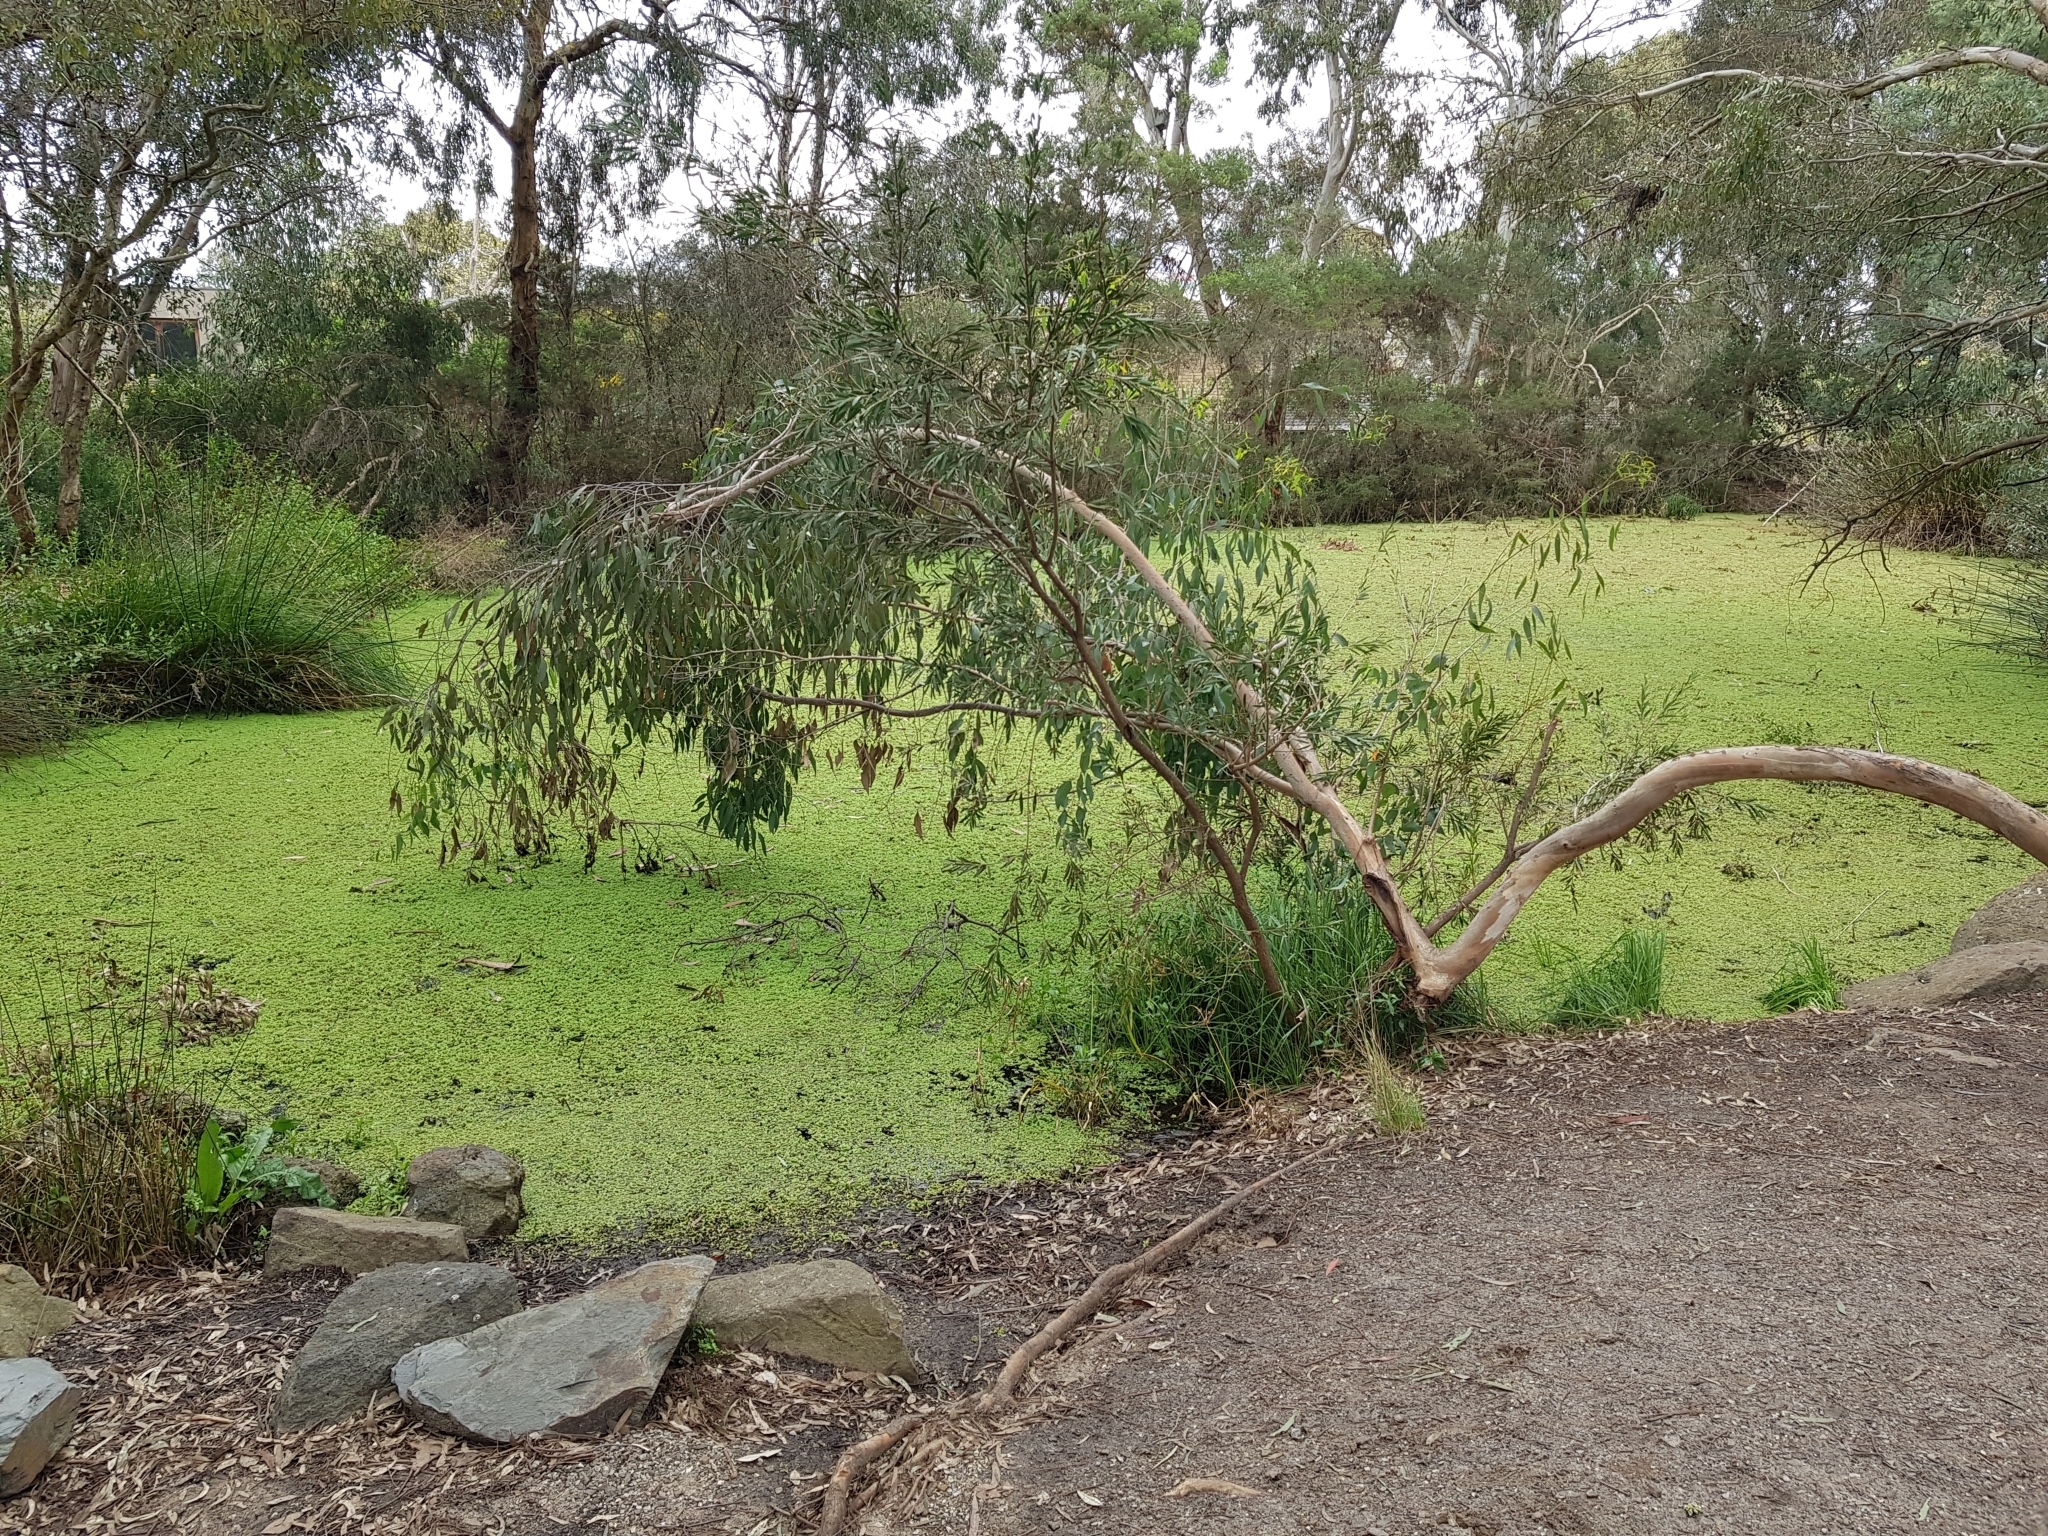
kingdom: Plantae
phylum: Tracheophyta
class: Polypodiopsida
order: Salviniales
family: Salviniaceae
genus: Azolla
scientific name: Azolla rubra
